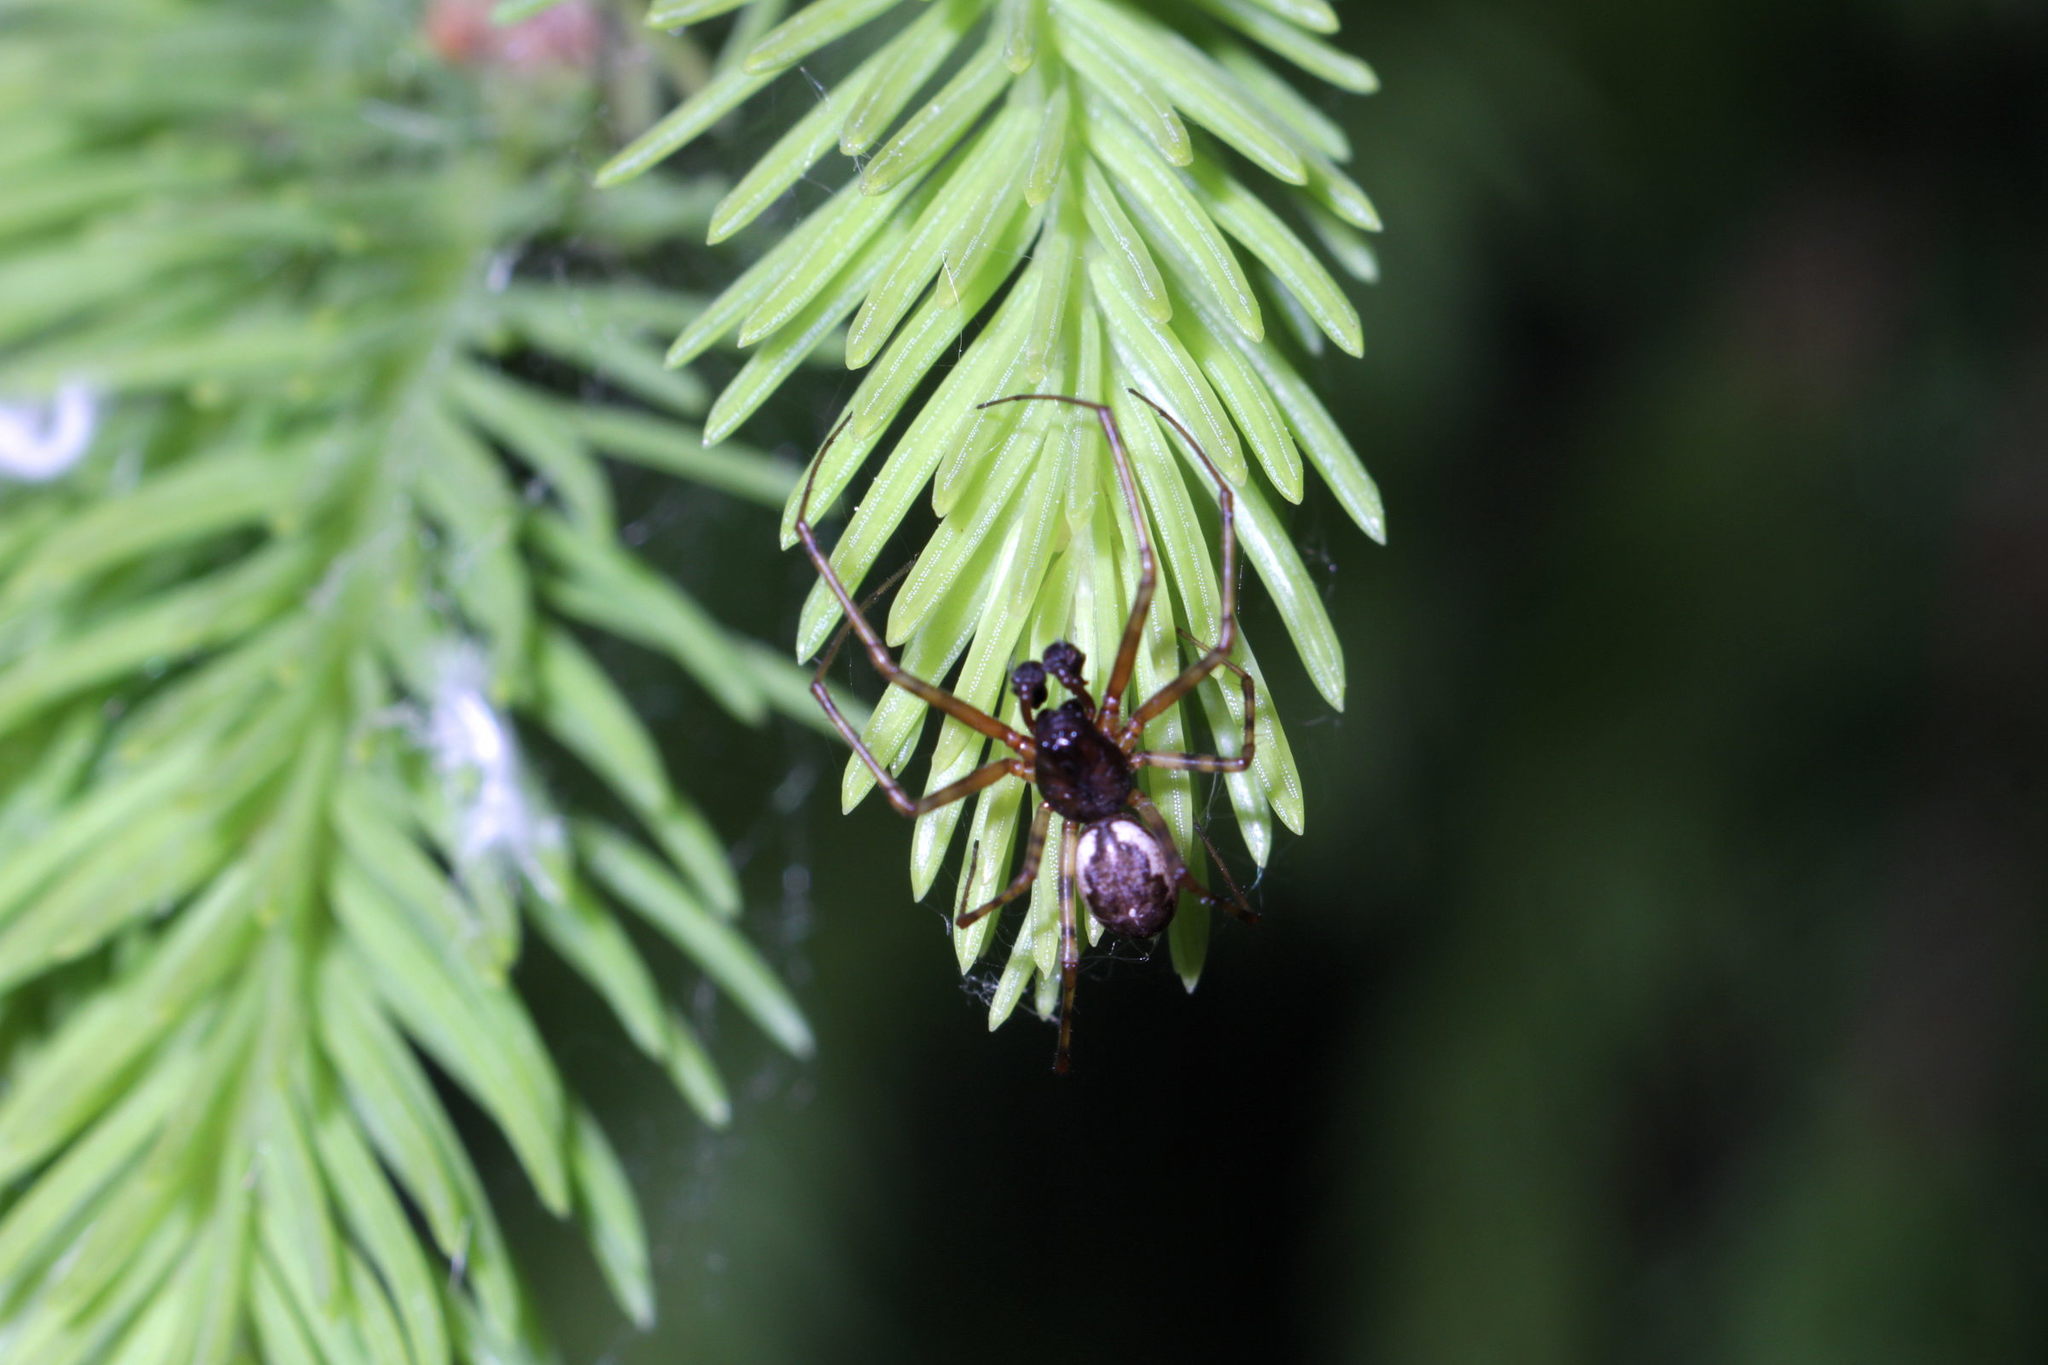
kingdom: Animalia
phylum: Arthropoda
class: Arachnida
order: Araneae
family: Linyphiidae
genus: Neriene
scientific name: Neriene montana
